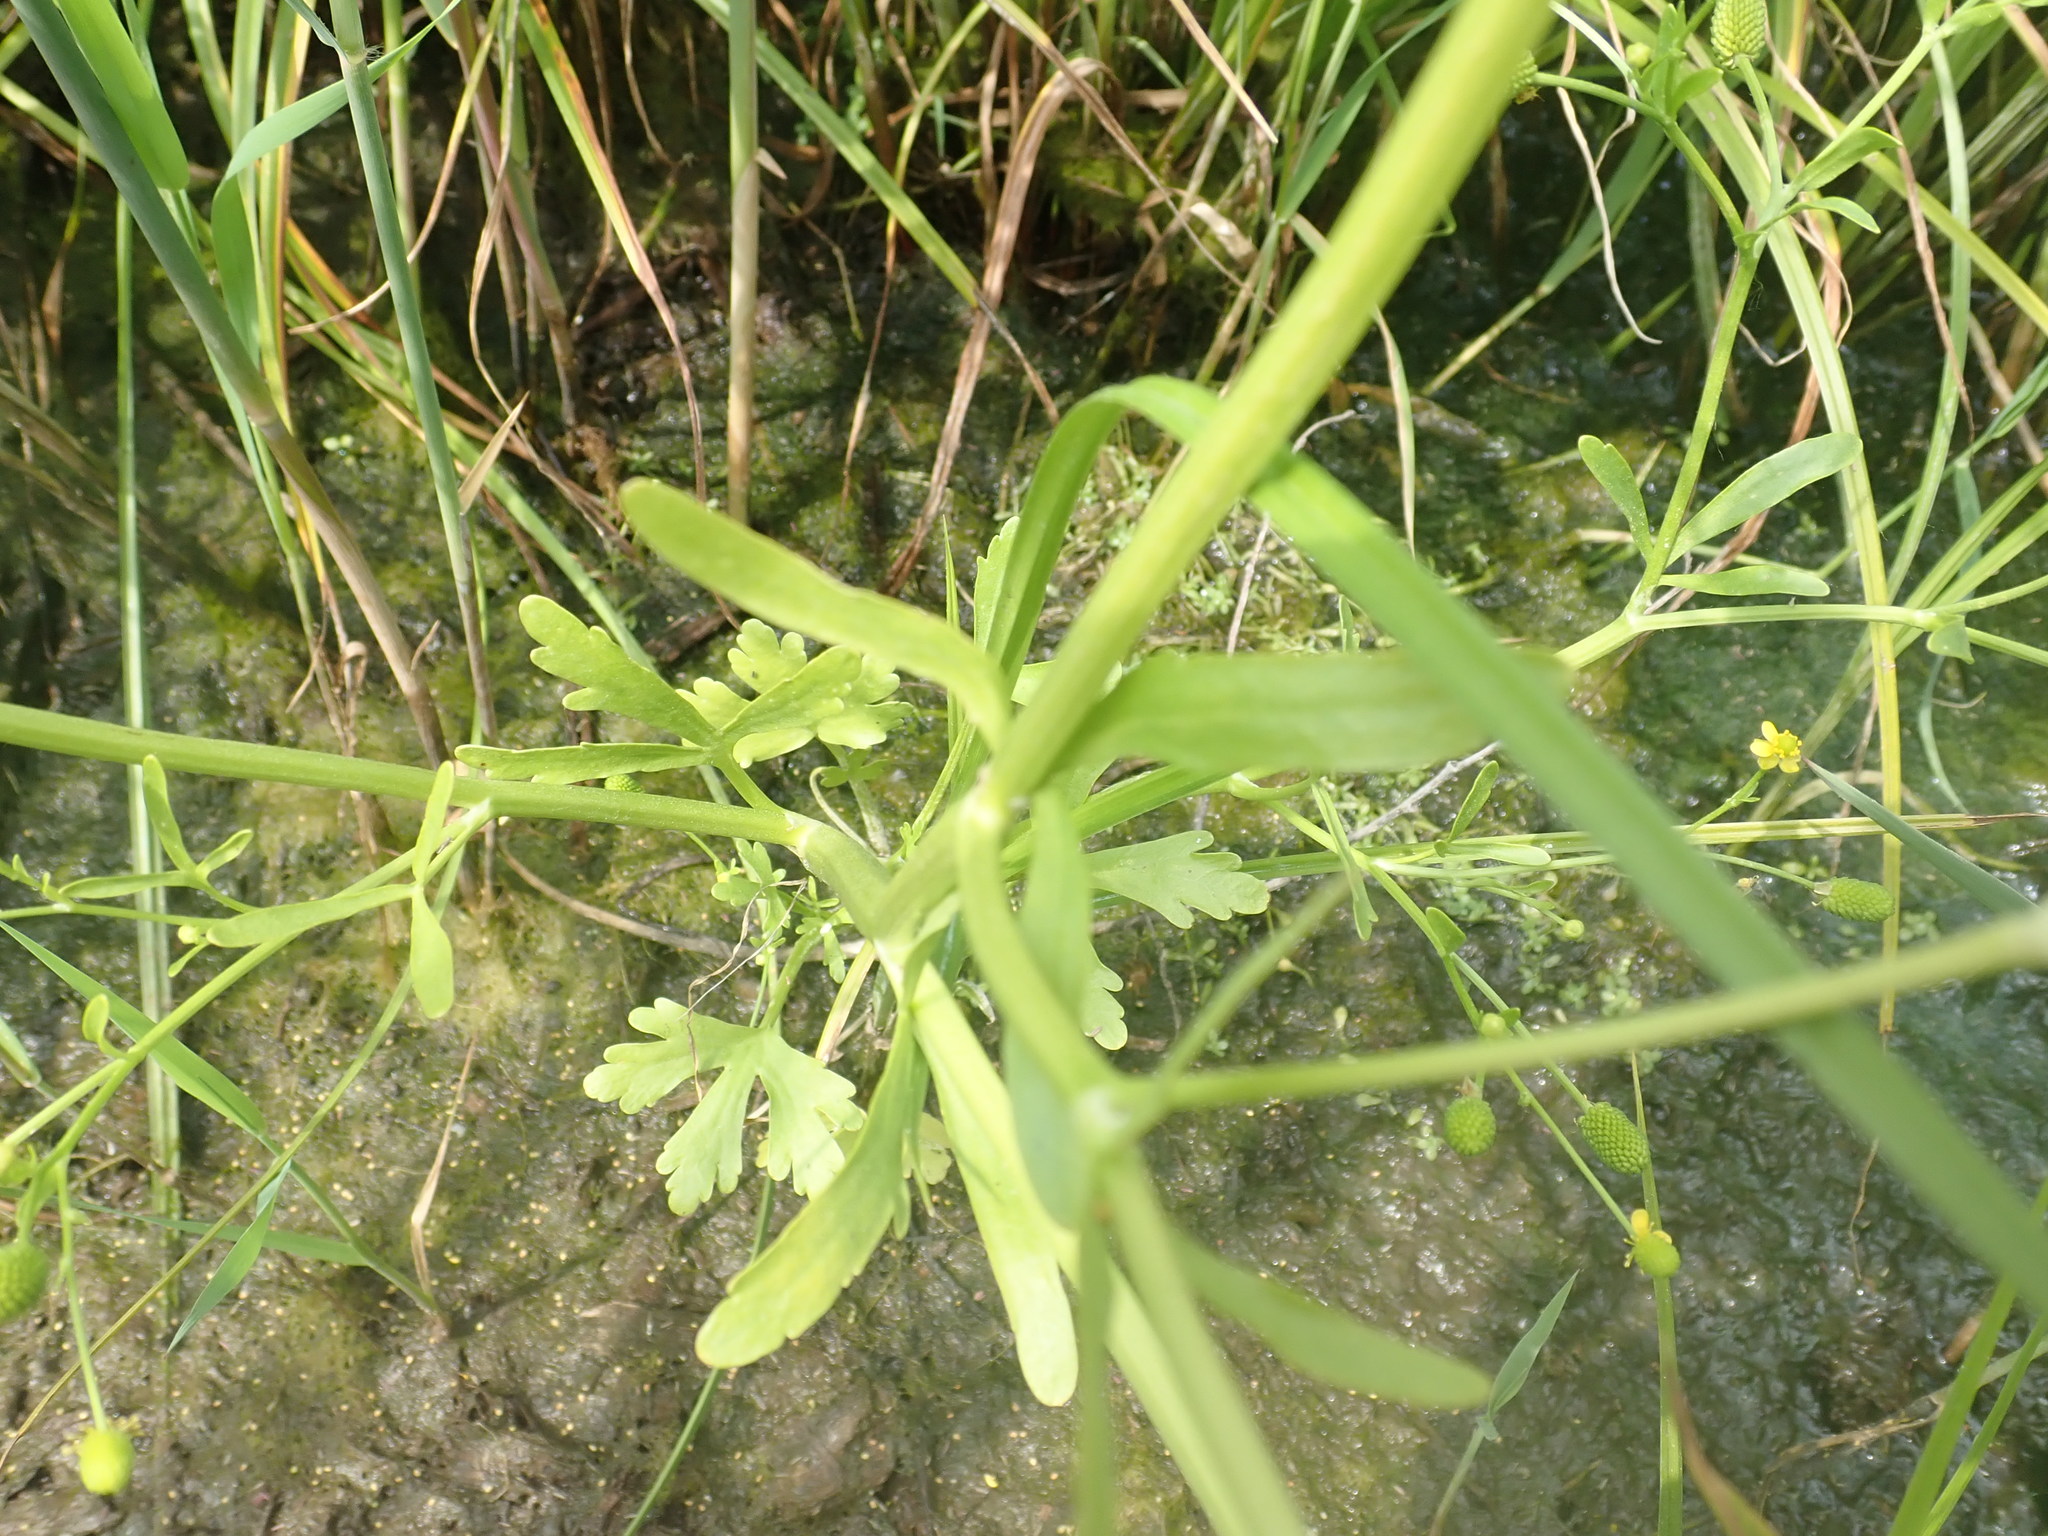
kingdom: Plantae
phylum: Tracheophyta
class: Magnoliopsida
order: Ranunculales
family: Ranunculaceae
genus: Ranunculus
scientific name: Ranunculus sceleratus
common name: Celery-leaved buttercup
